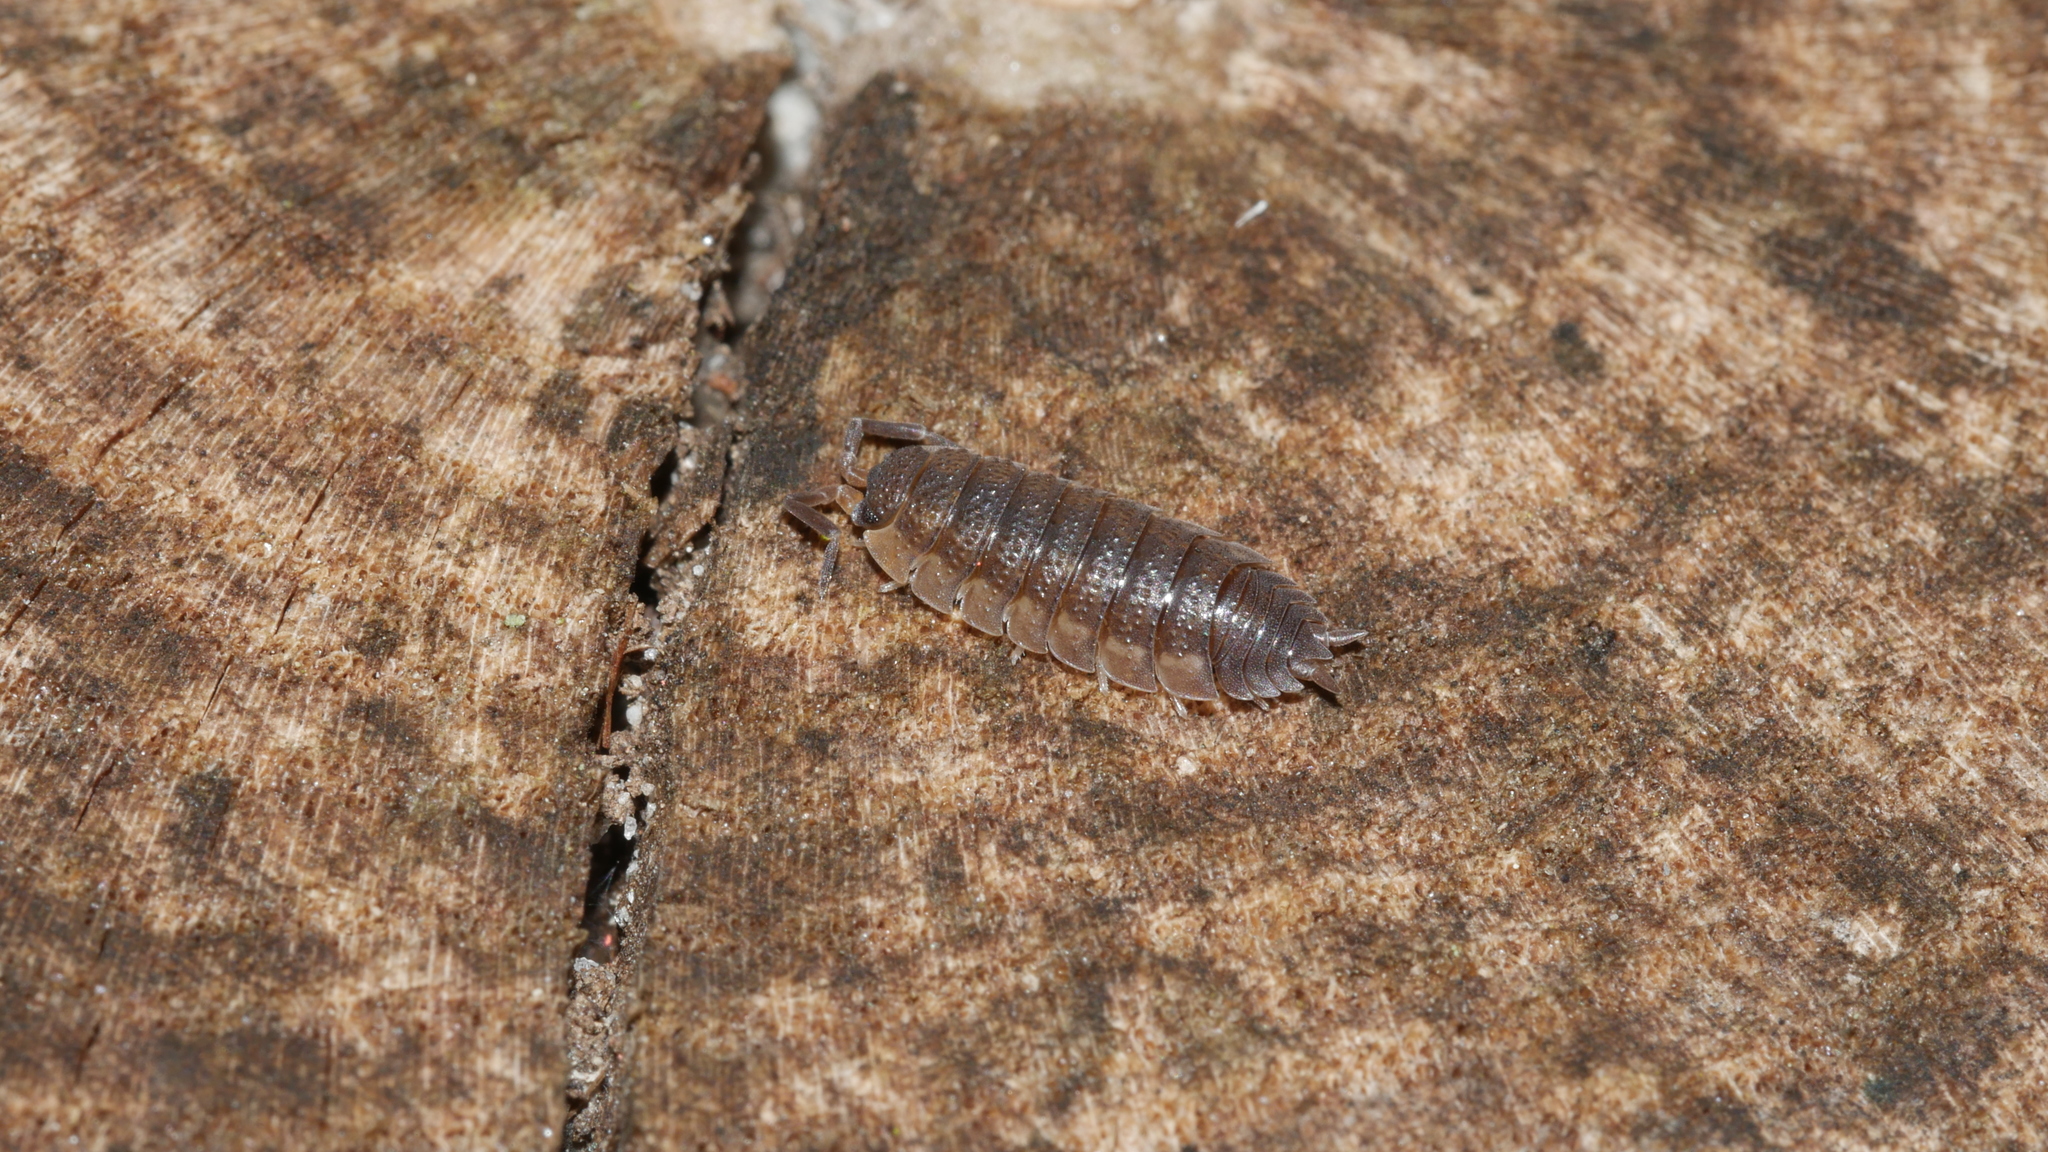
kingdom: Animalia
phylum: Arthropoda
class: Malacostraca
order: Isopoda
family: Porcellionidae
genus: Porcellio
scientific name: Porcellio scaber
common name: Common rough woodlouse
